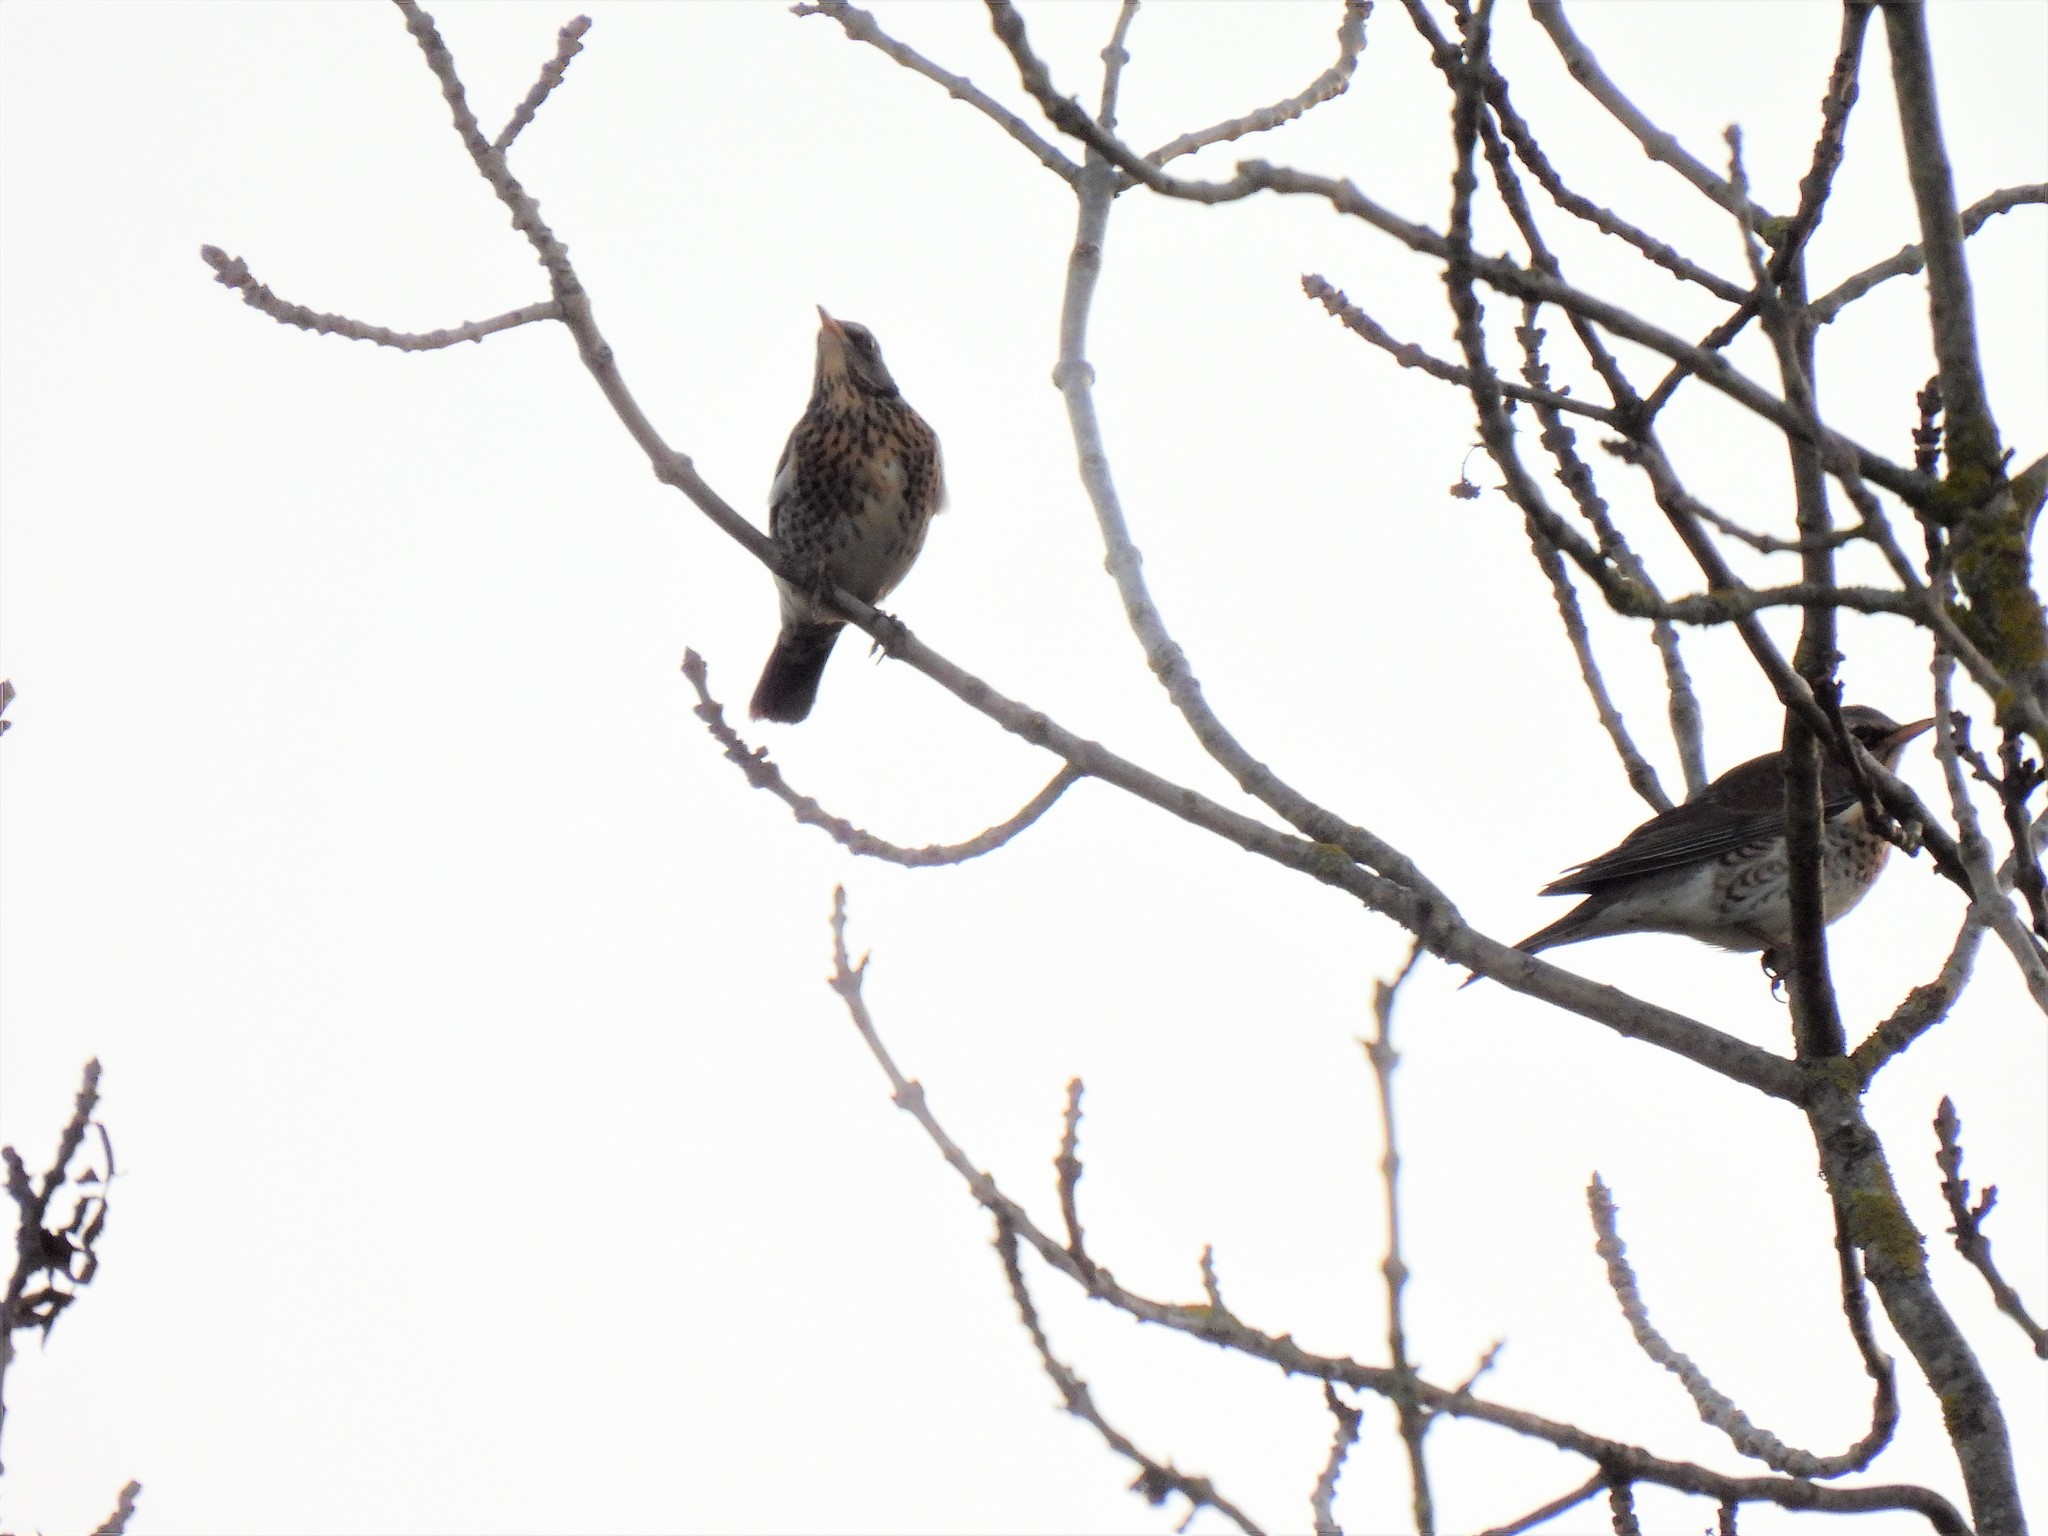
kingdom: Animalia
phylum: Chordata
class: Aves
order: Passeriformes
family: Turdidae
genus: Turdus
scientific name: Turdus pilaris
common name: Fieldfare
